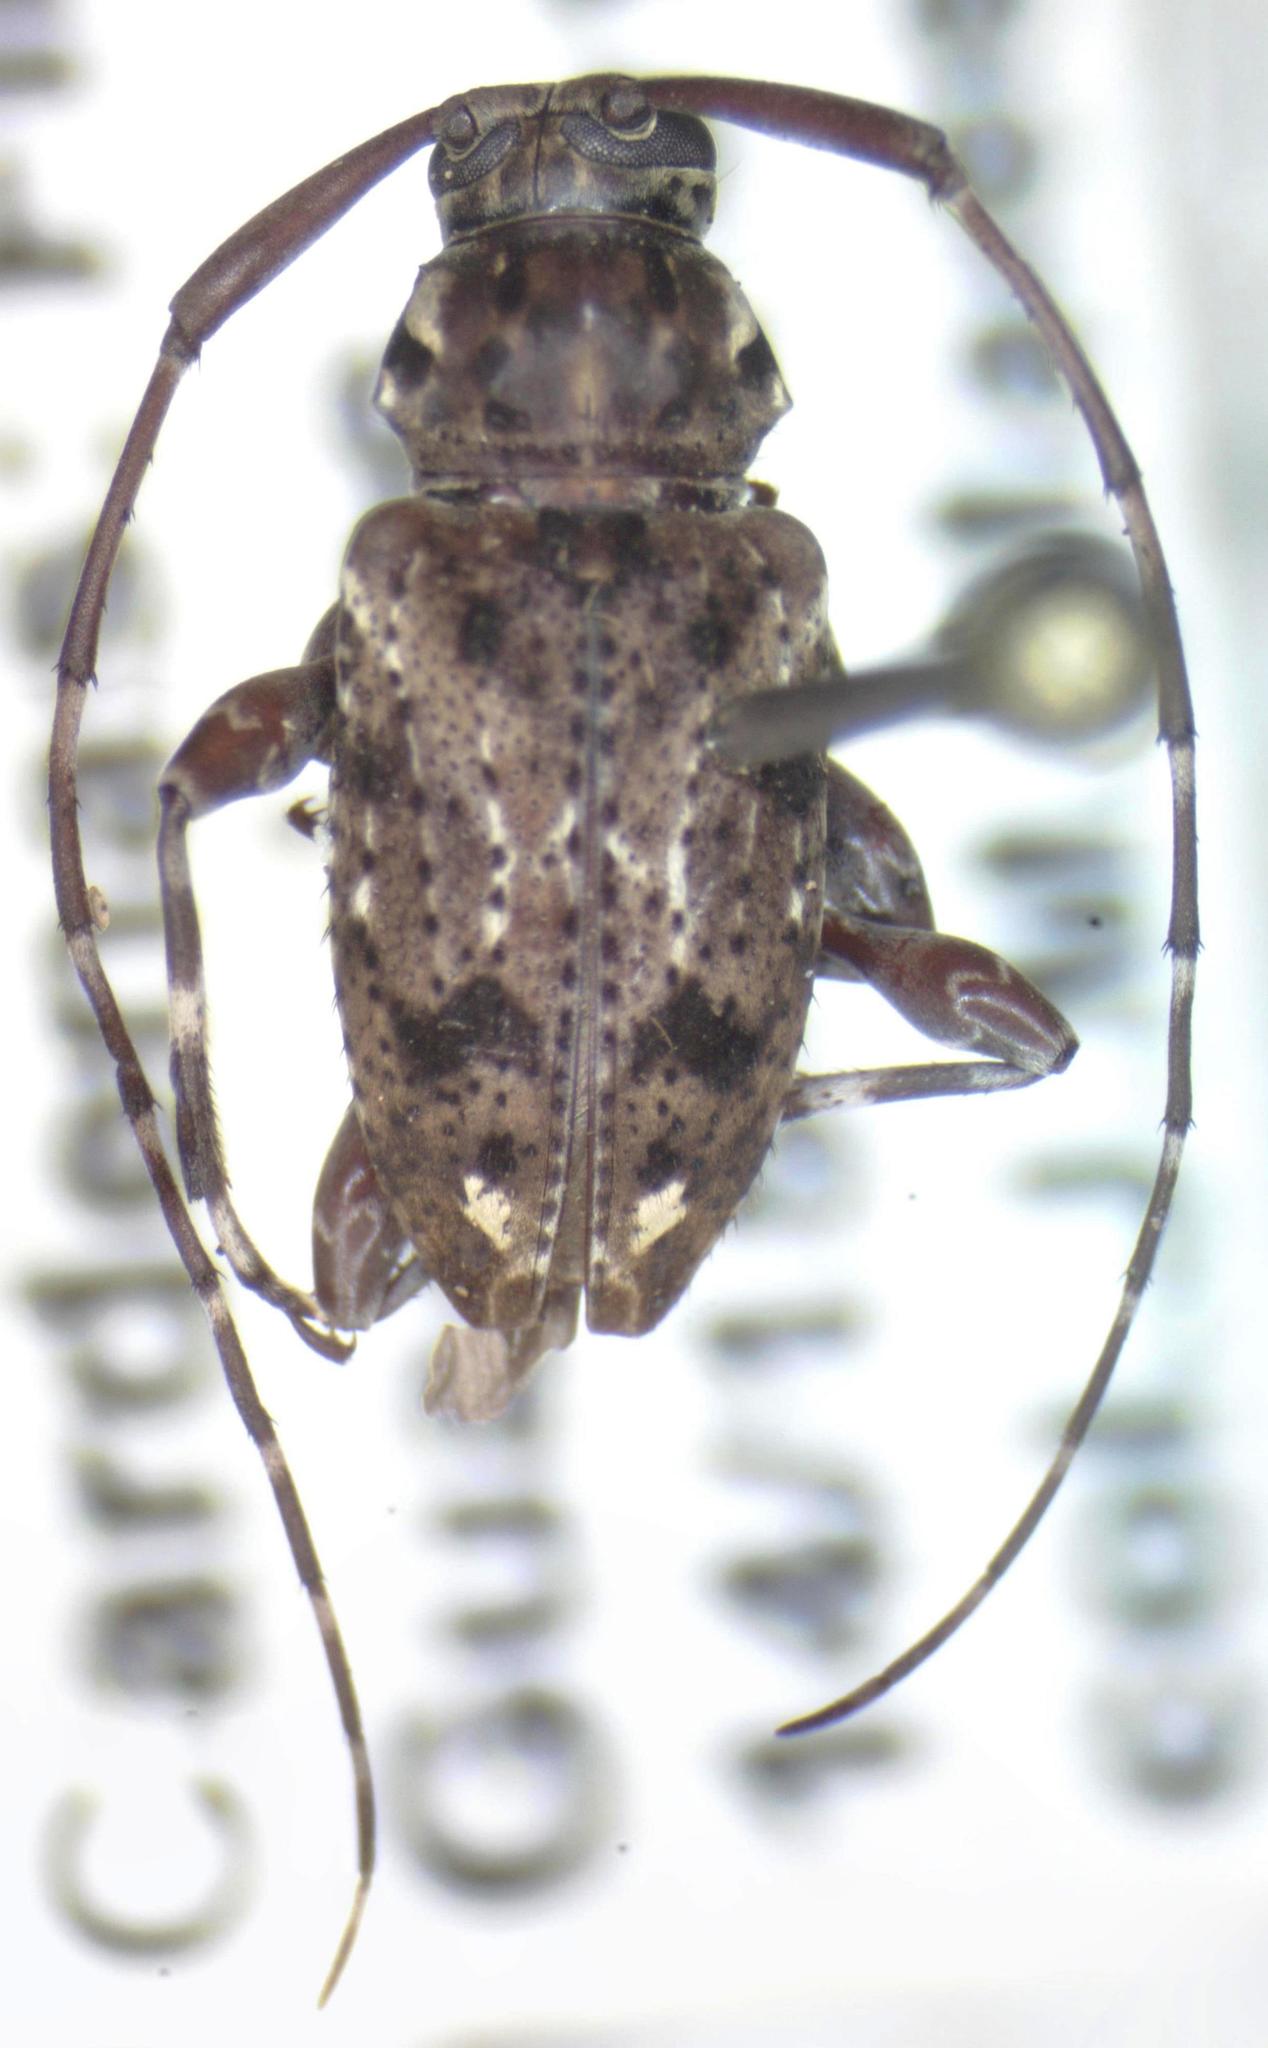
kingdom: Animalia
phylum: Arthropoda
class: Insecta
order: Coleoptera
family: Cerambycidae
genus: Oedopeza
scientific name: Oedopeza ocellator
